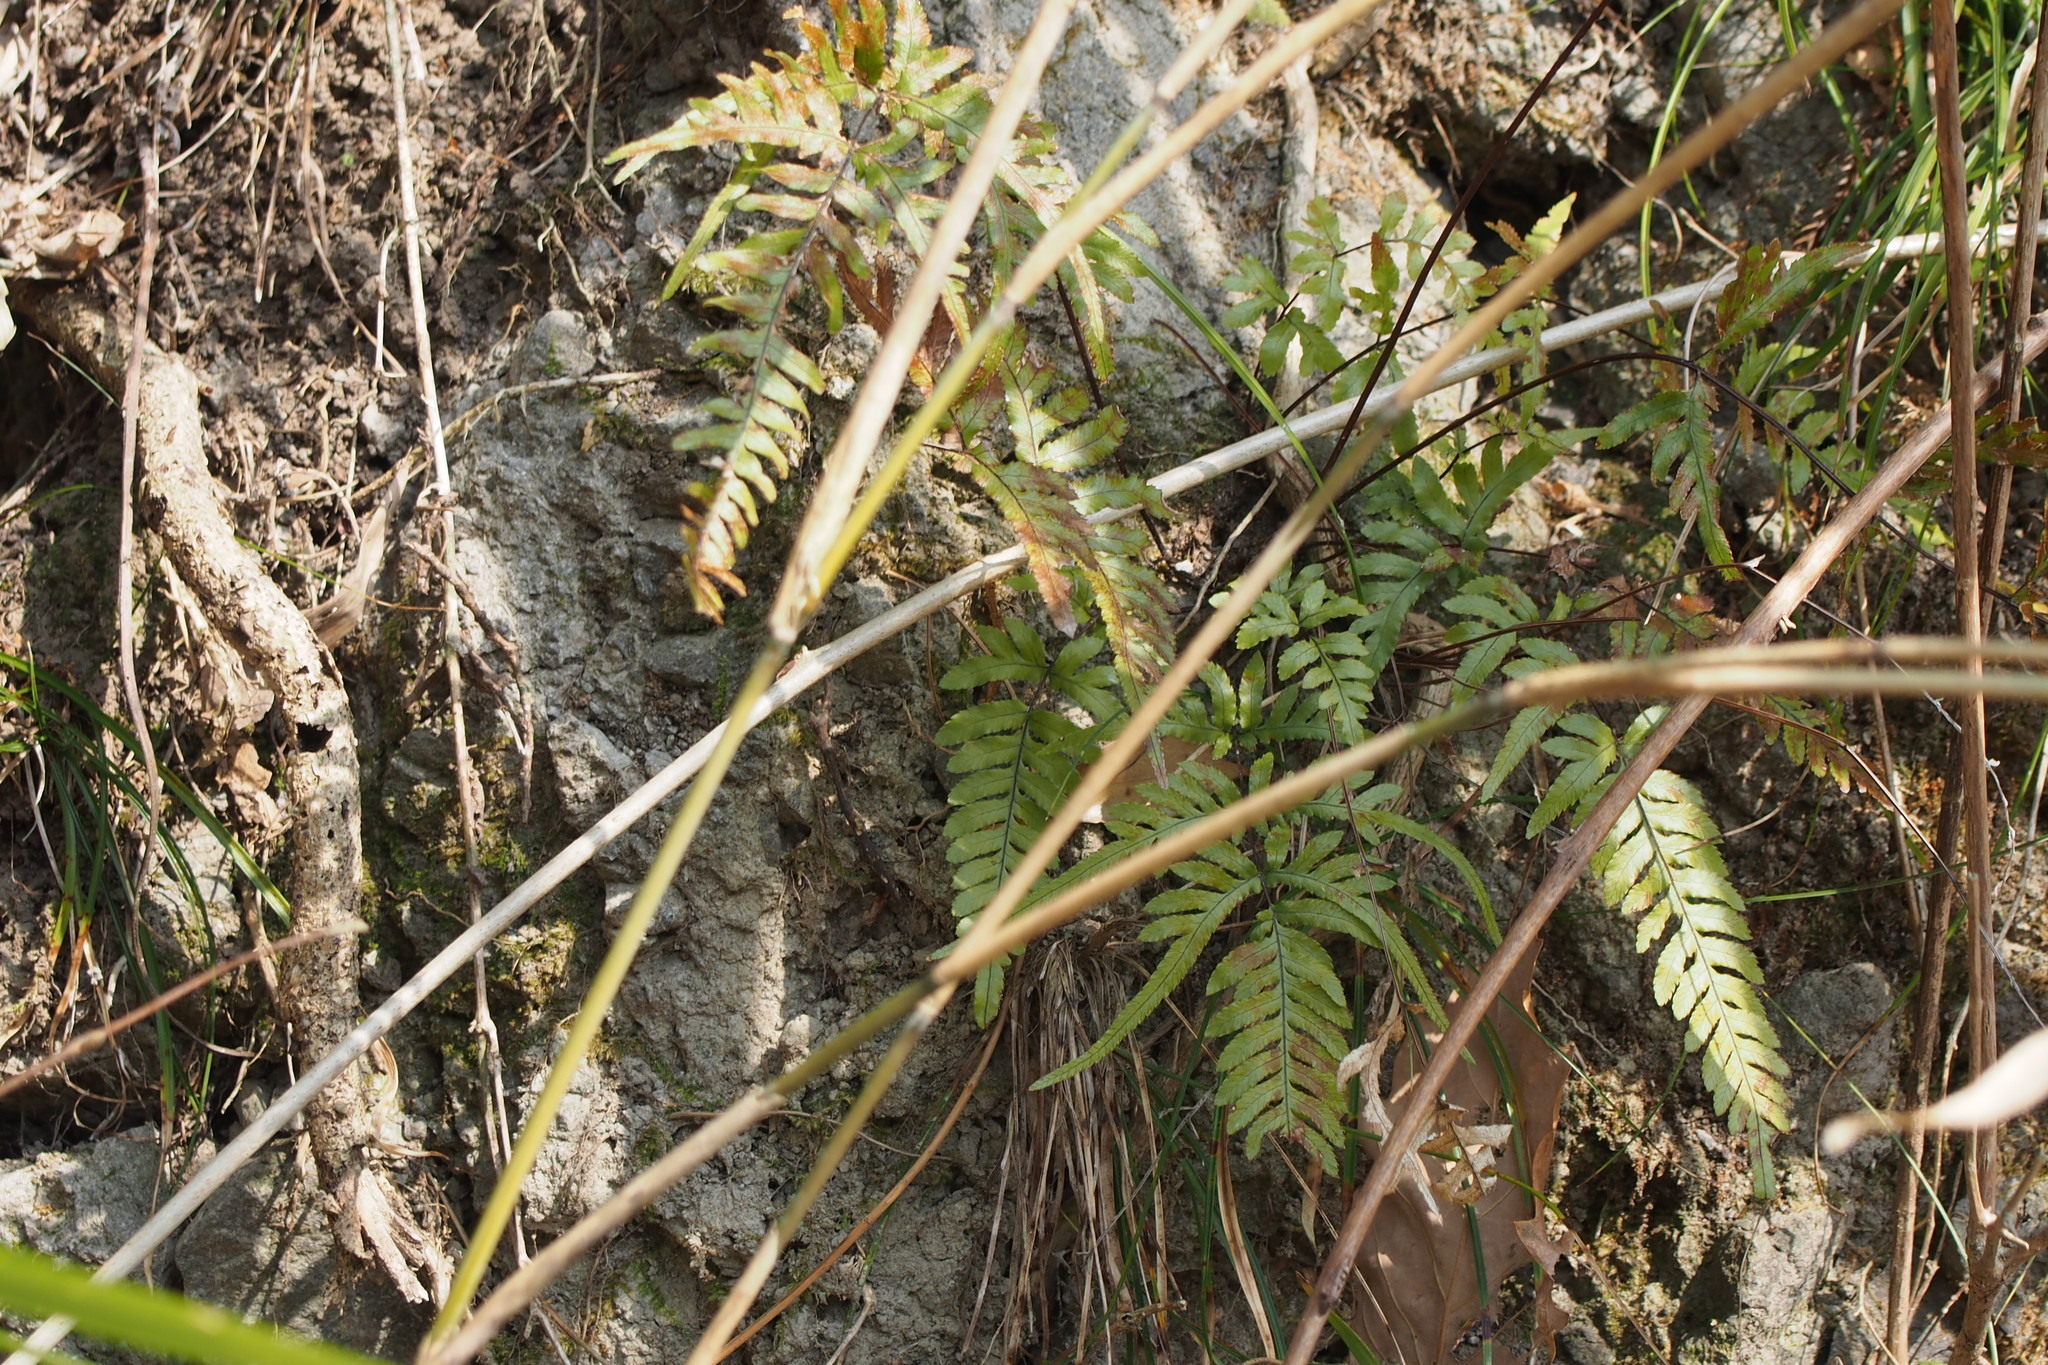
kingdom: Plantae
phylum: Tracheophyta
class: Polypodiopsida
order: Polypodiales
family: Pteridaceae
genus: Pteris
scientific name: Pteris dispar
